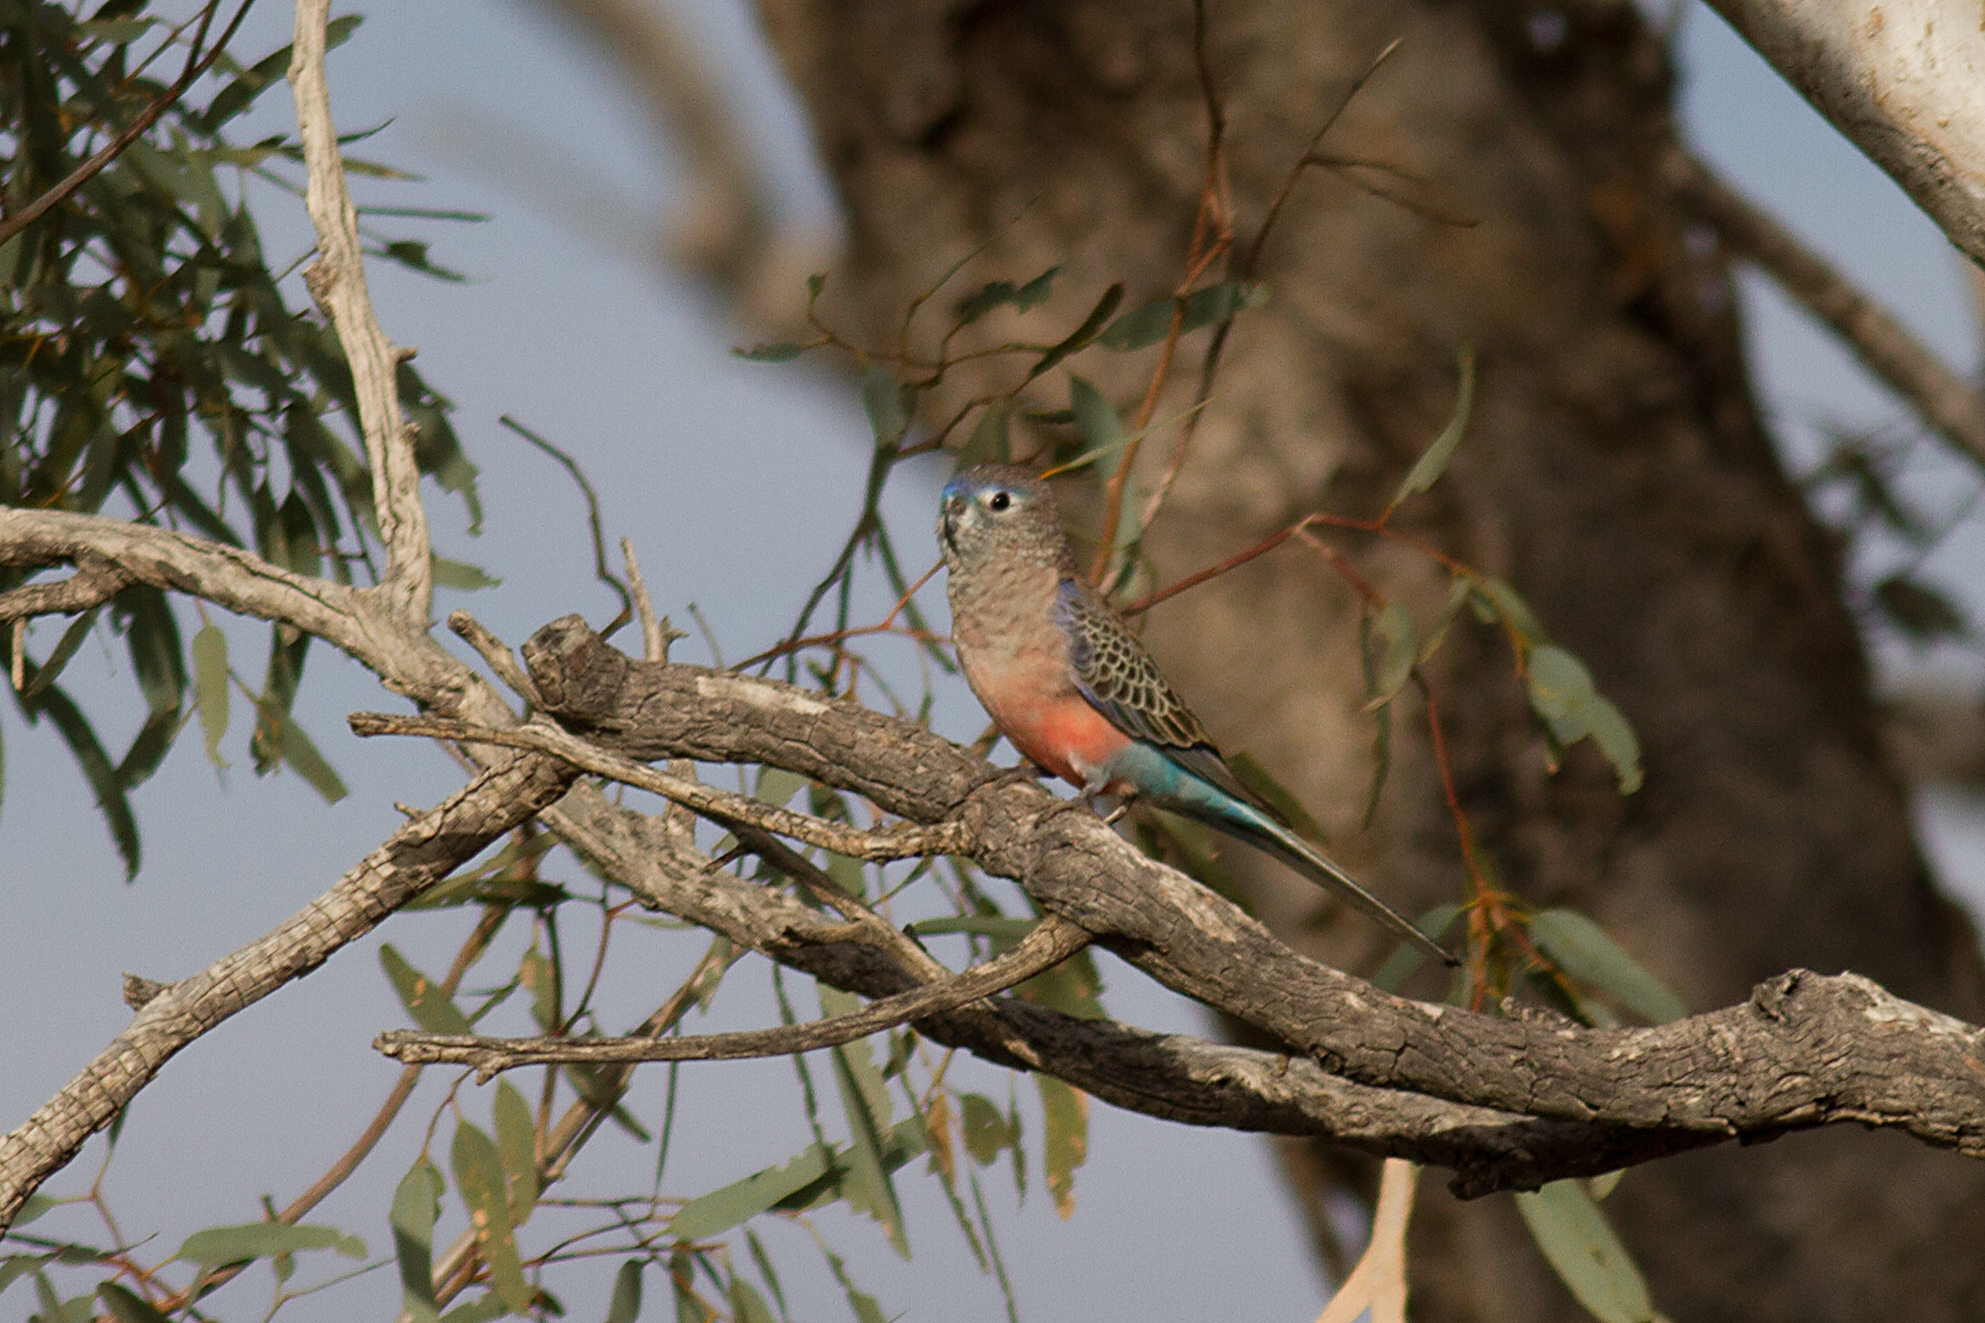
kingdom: Animalia
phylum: Chordata
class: Aves
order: Psittaciformes
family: Psittacidae
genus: Neopsephotus
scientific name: Neopsephotus bourkii
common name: Bourke's parrot
